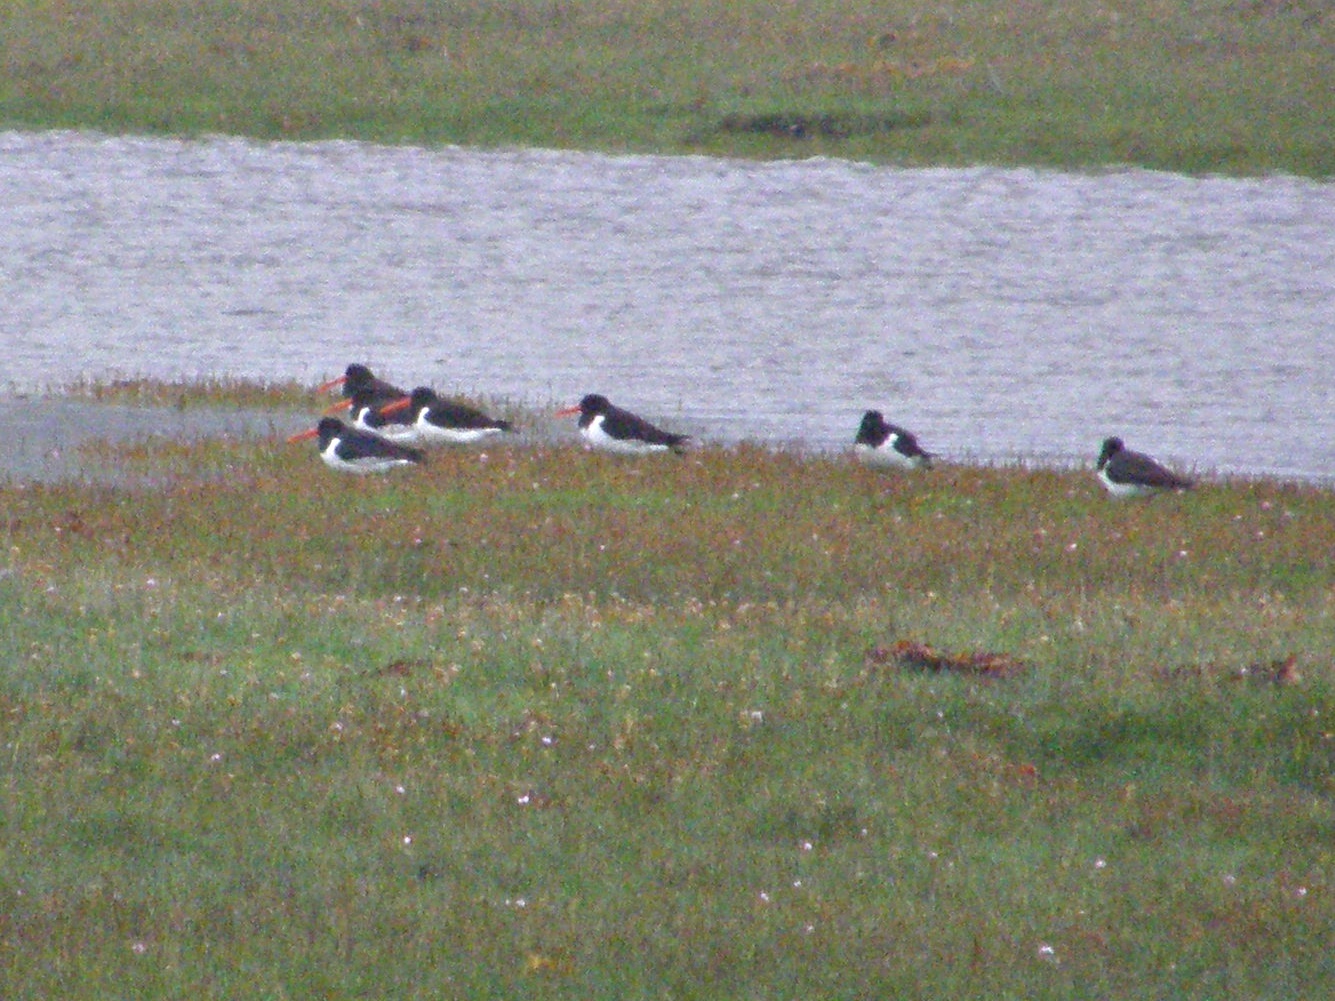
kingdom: Animalia
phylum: Chordata
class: Aves
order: Charadriiformes
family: Haematopodidae
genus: Haematopus
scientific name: Haematopus ostralegus
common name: Eurasian oystercatcher
